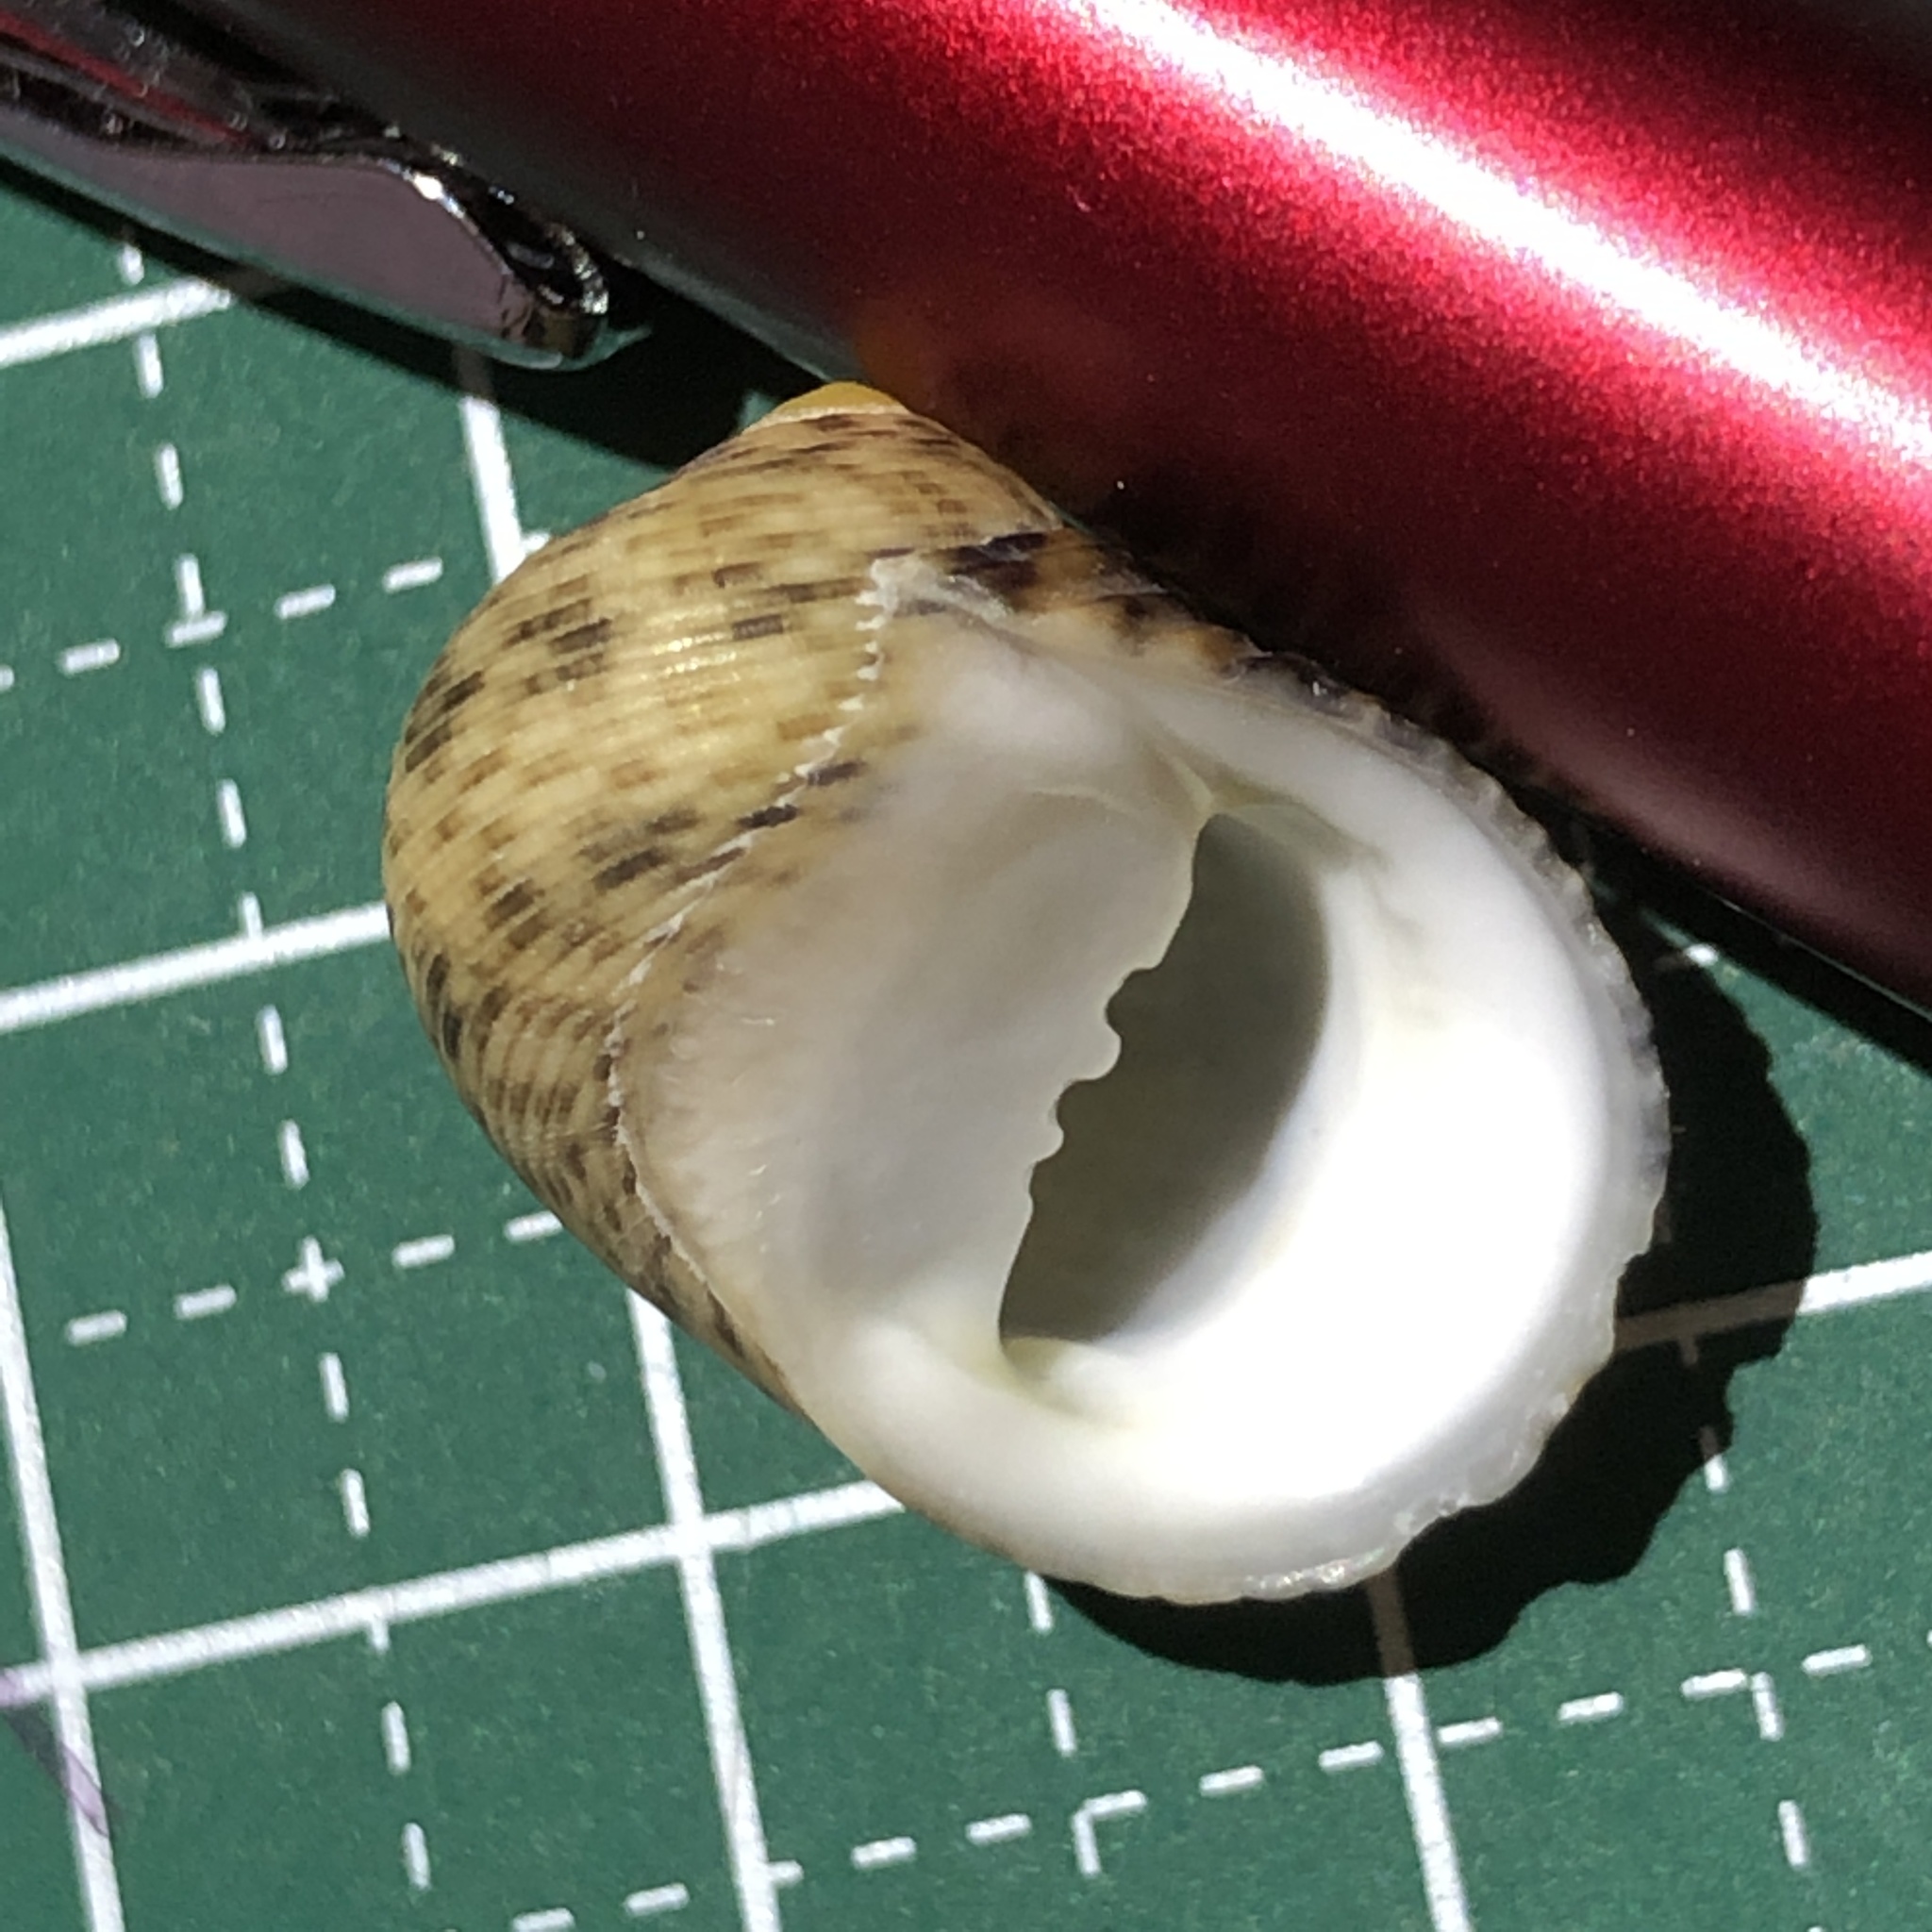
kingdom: Animalia
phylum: Mollusca
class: Gastropoda
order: Cycloneritida
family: Neritidae
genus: Nerita
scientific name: Nerita striata
